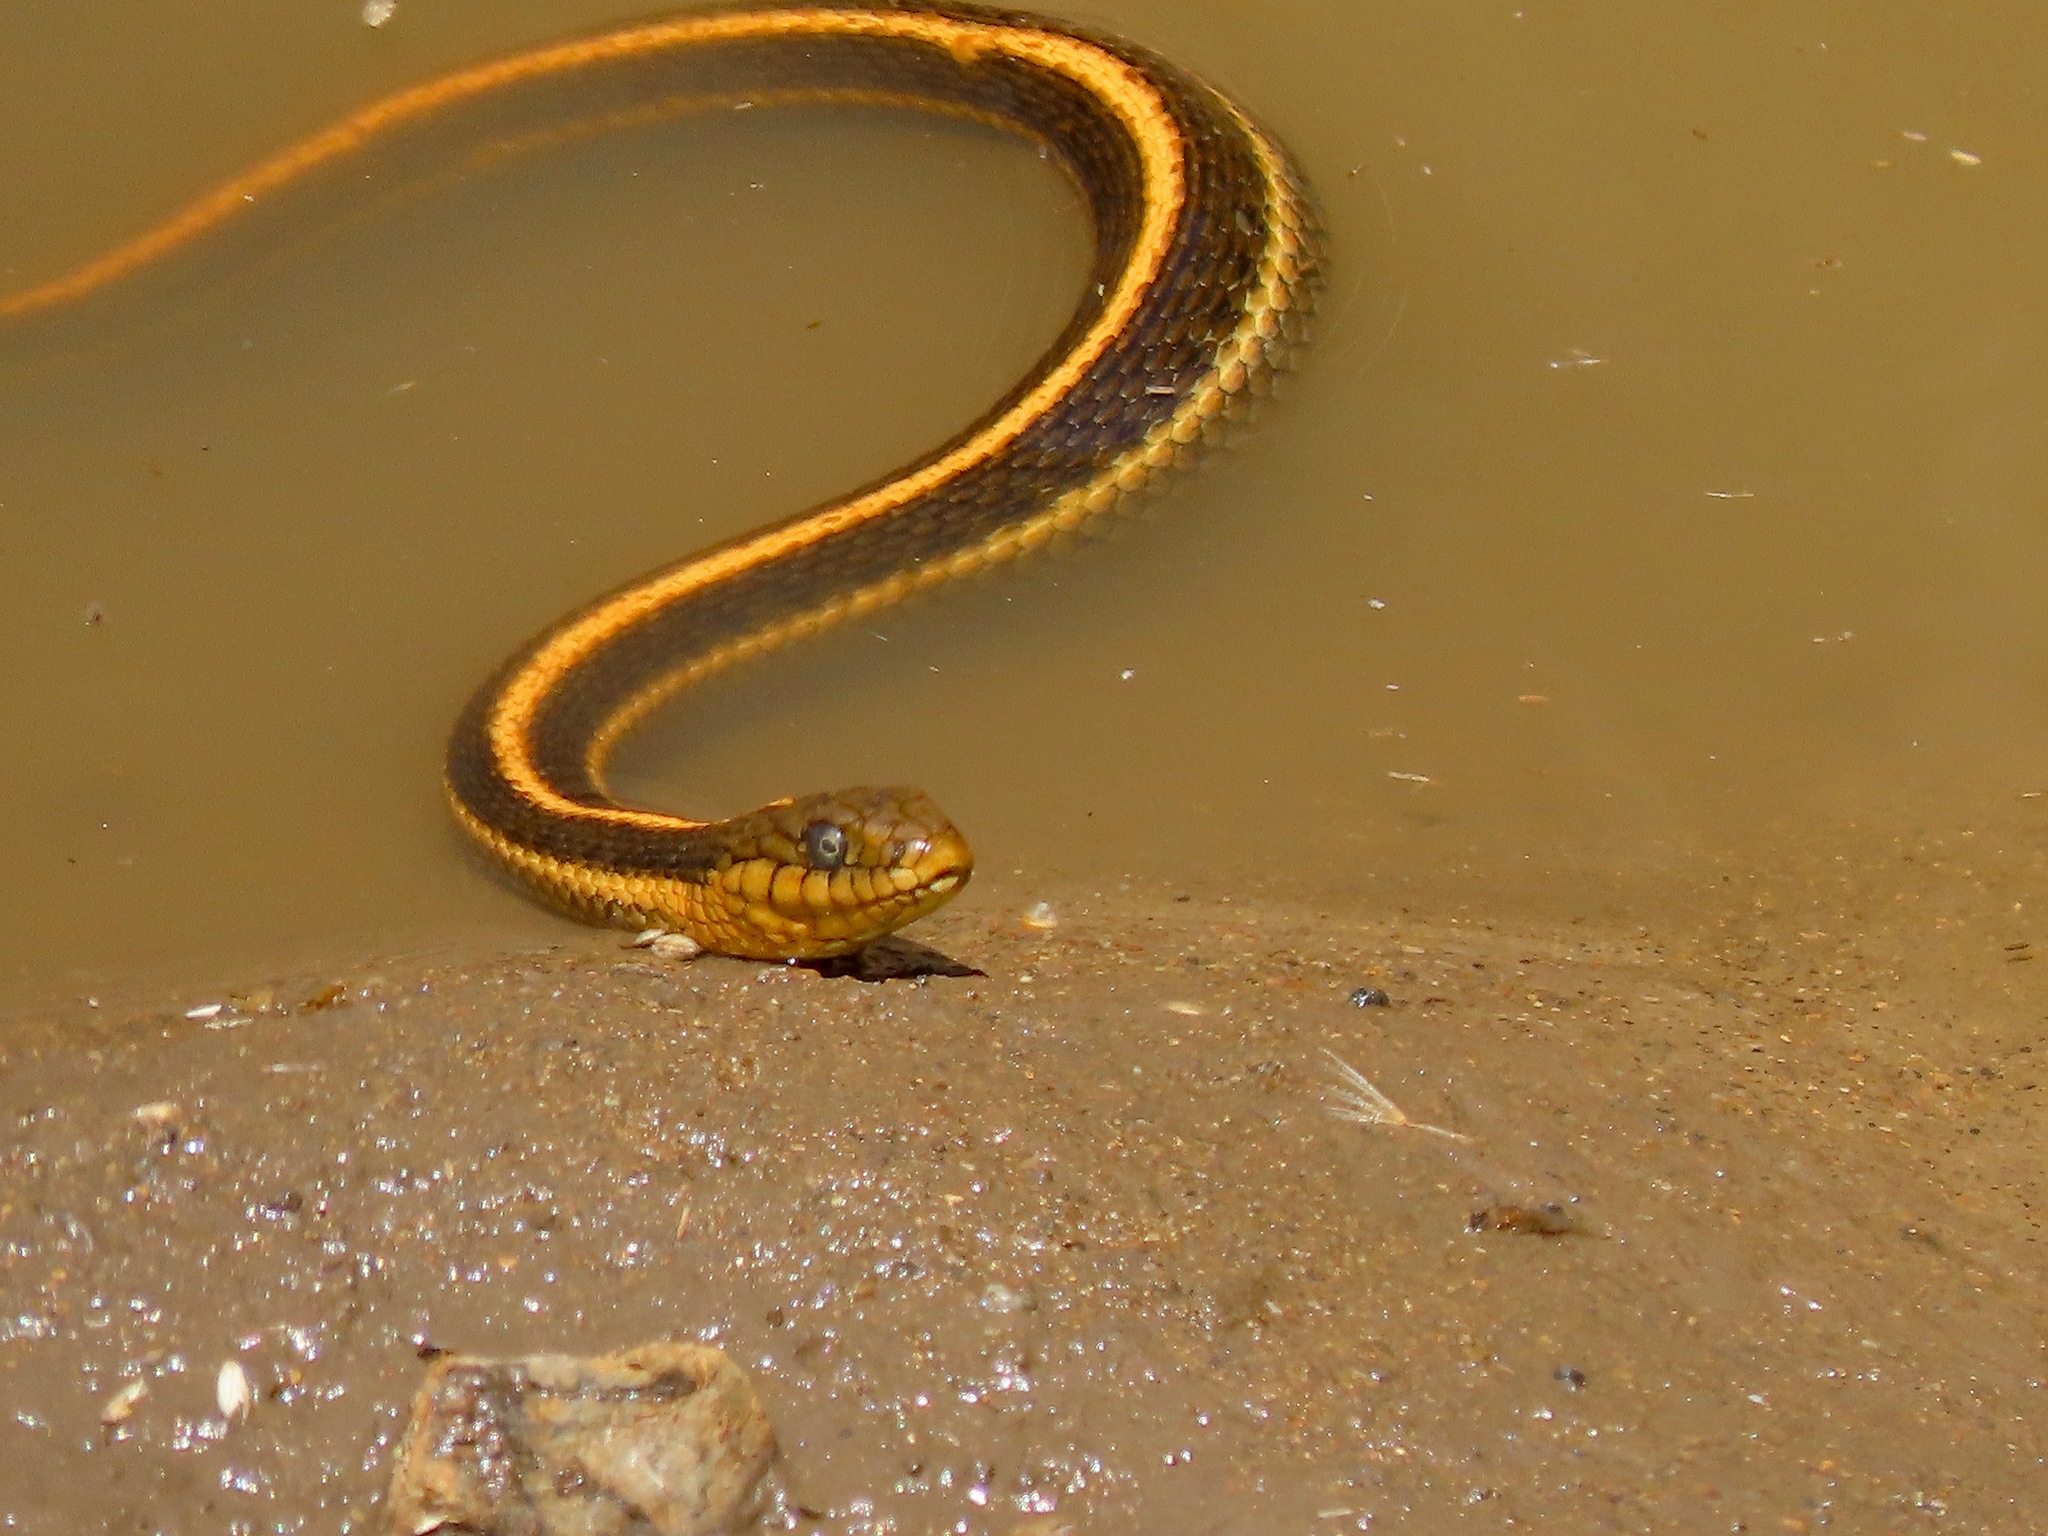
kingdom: Animalia
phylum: Chordata
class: Squamata
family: Colubridae
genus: Thamnophis
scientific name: Thamnophis atratus
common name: Pacific coast aquatic garter snake
